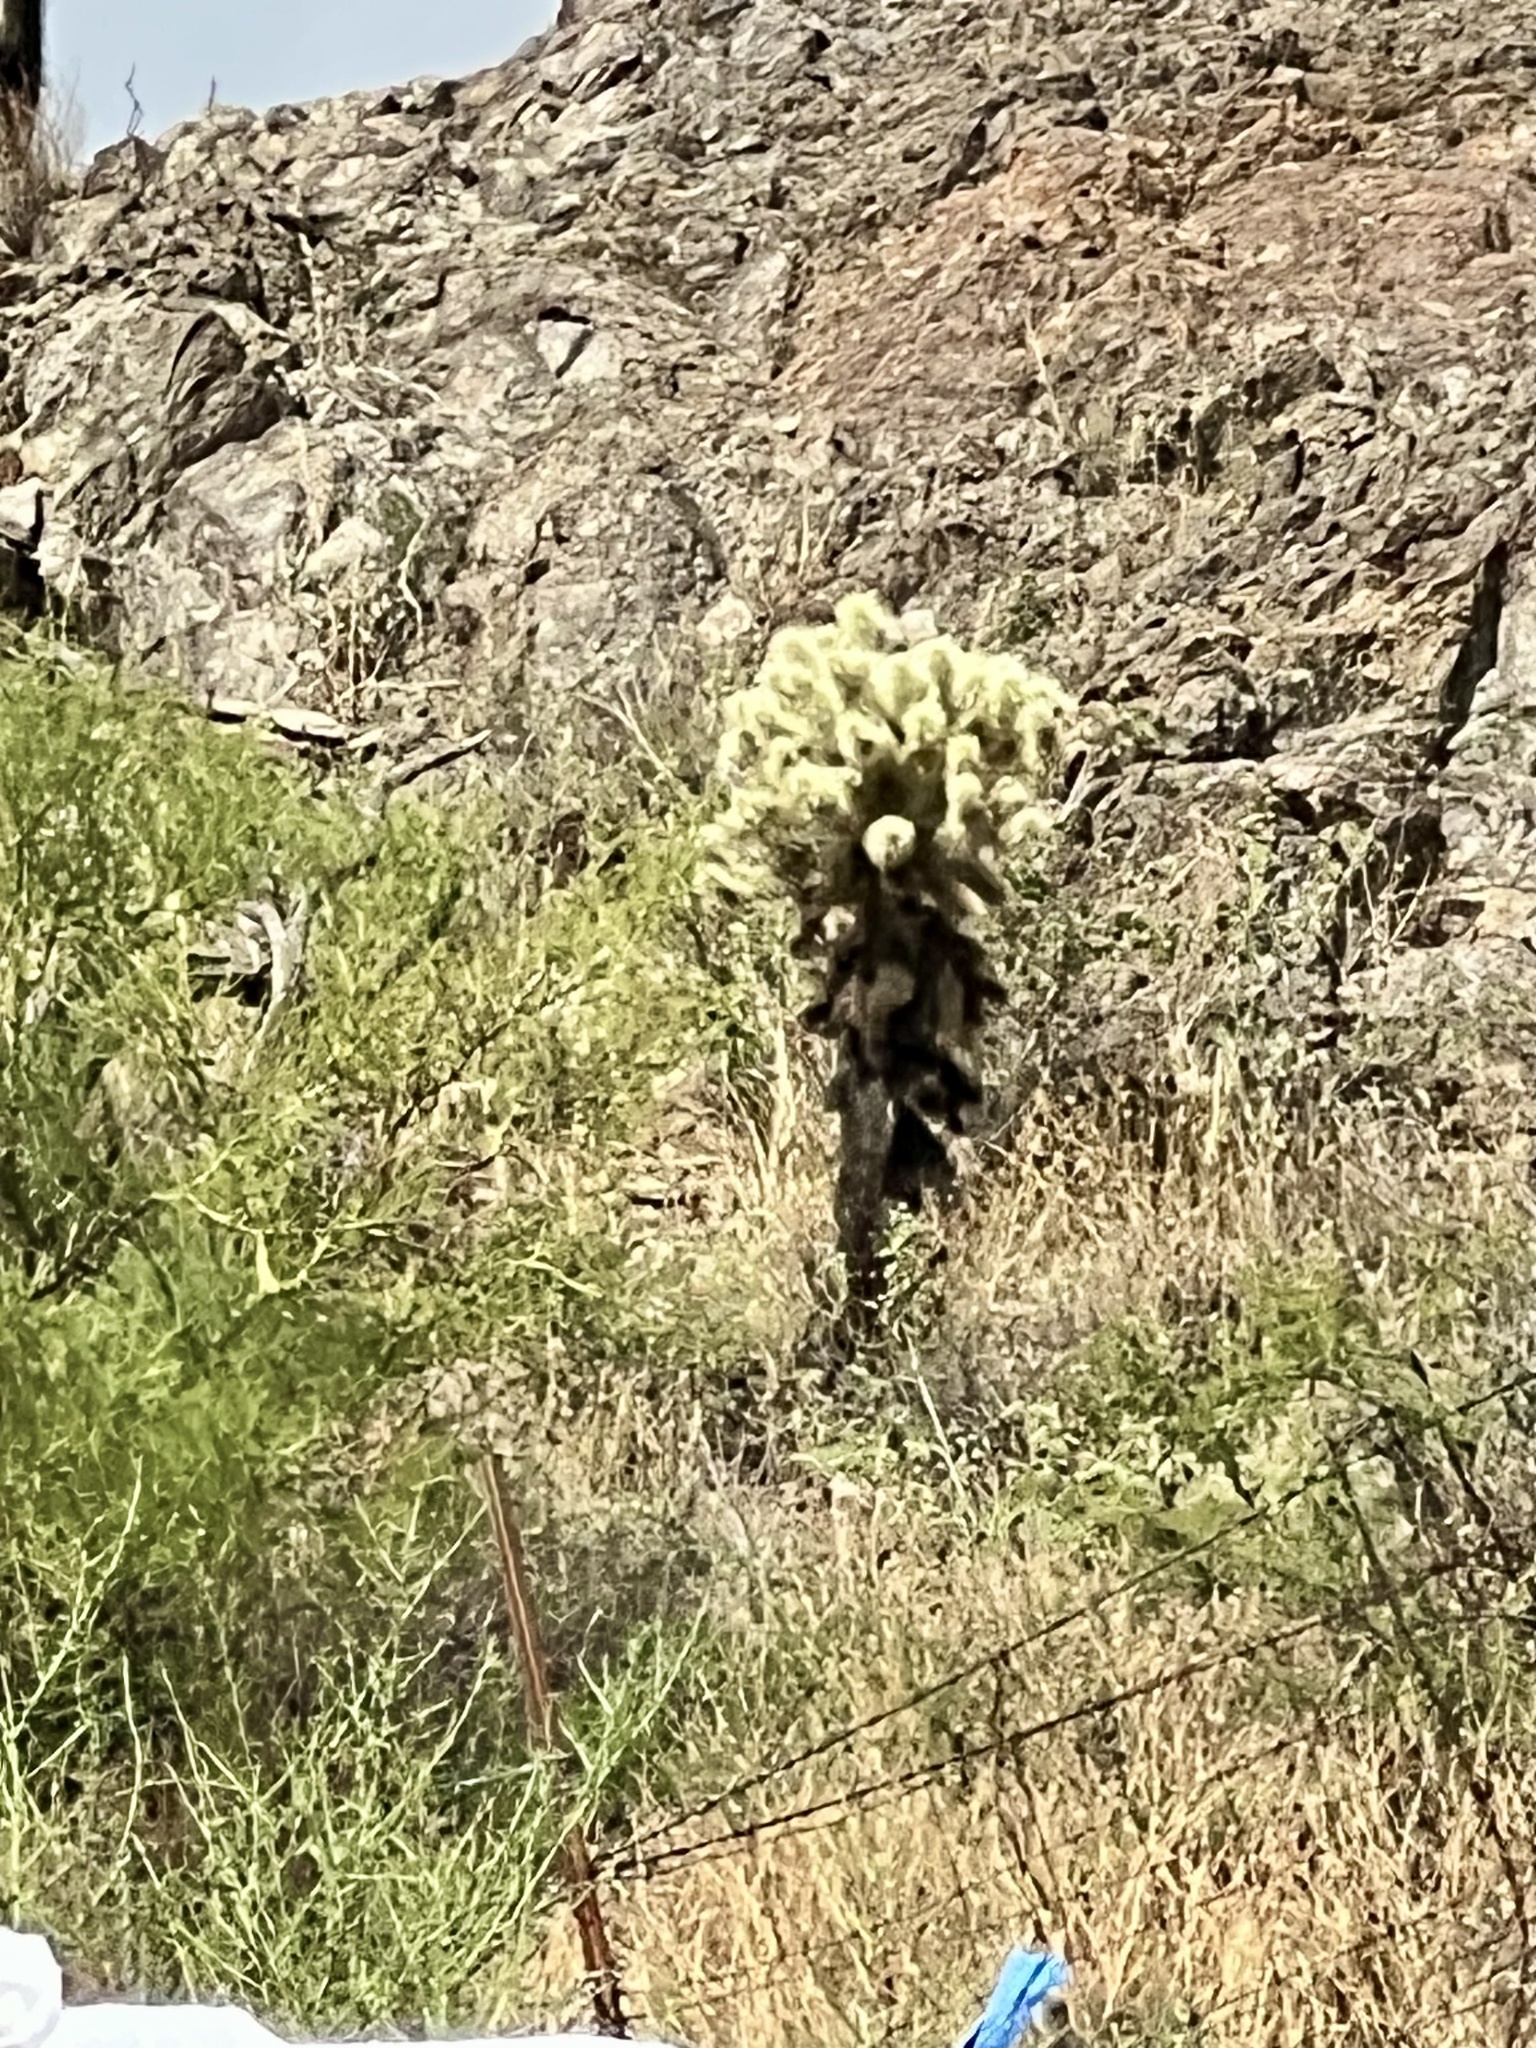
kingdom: Plantae
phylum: Tracheophyta
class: Magnoliopsida
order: Caryophyllales
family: Cactaceae
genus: Cylindropuntia
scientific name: Cylindropuntia fosbergii
